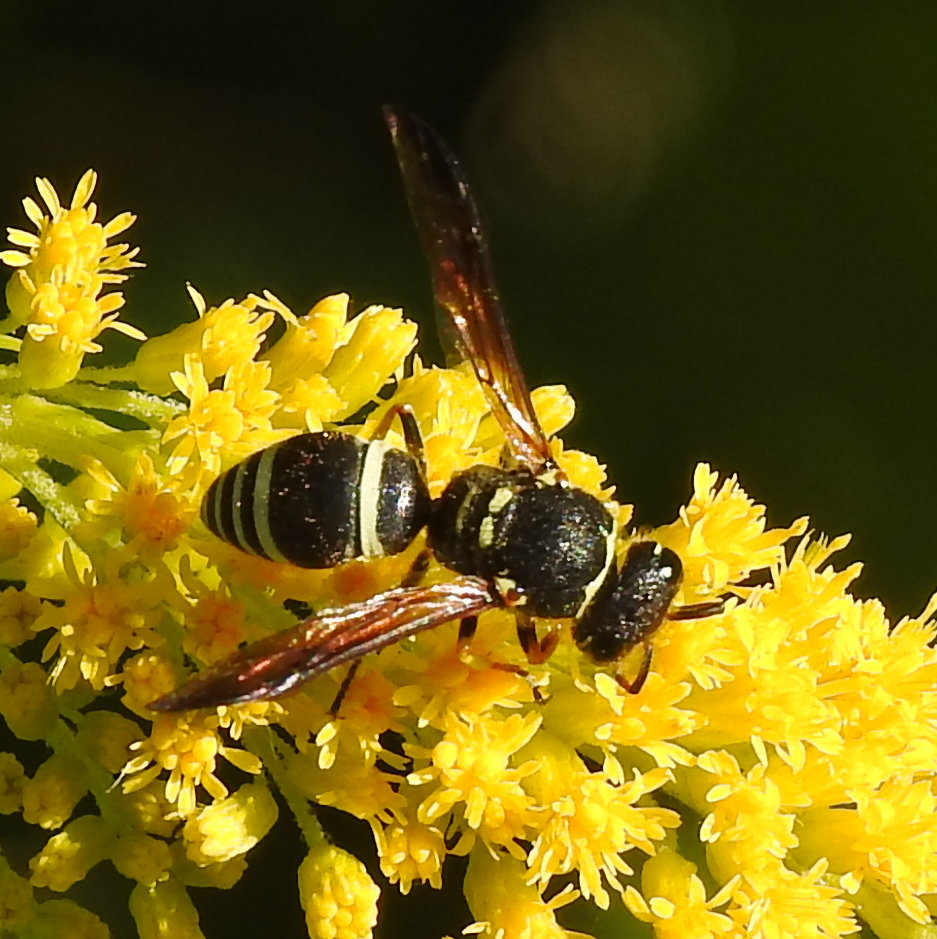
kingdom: Animalia
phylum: Arthropoda
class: Insecta
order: Hymenoptera
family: Vespidae
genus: Ancistrocerus
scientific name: Ancistrocerus catskill
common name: Vespid wasp
